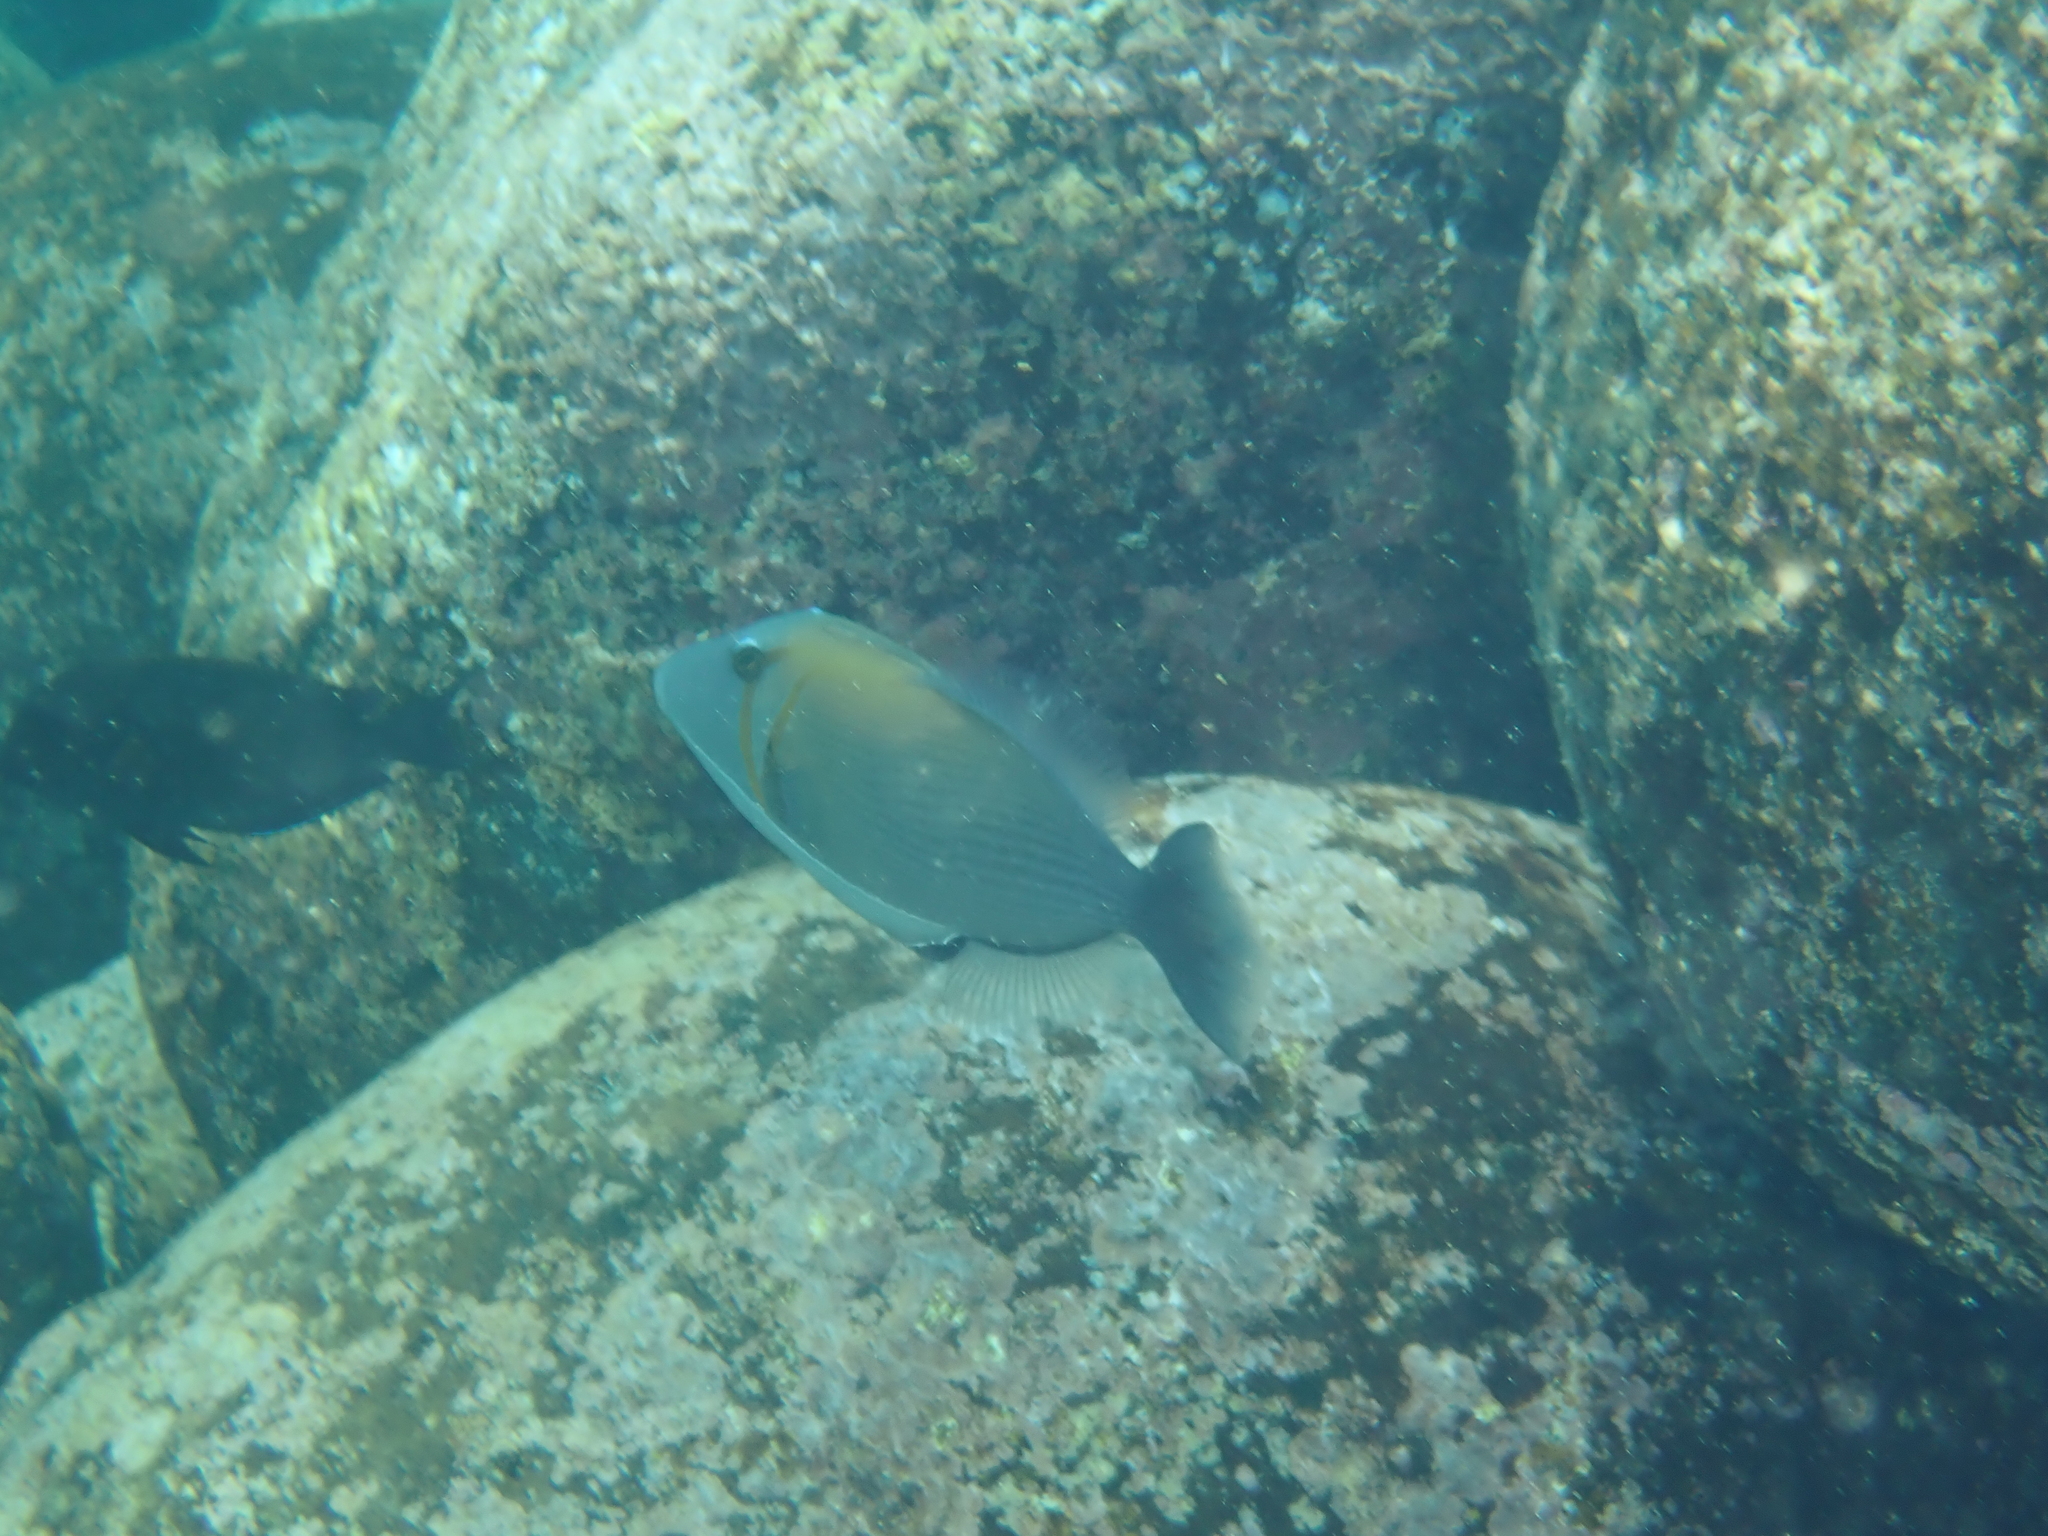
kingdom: Animalia
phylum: Chordata
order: Tetraodontiformes
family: Balistidae
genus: Sufflamen
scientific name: Sufflamen bursa
